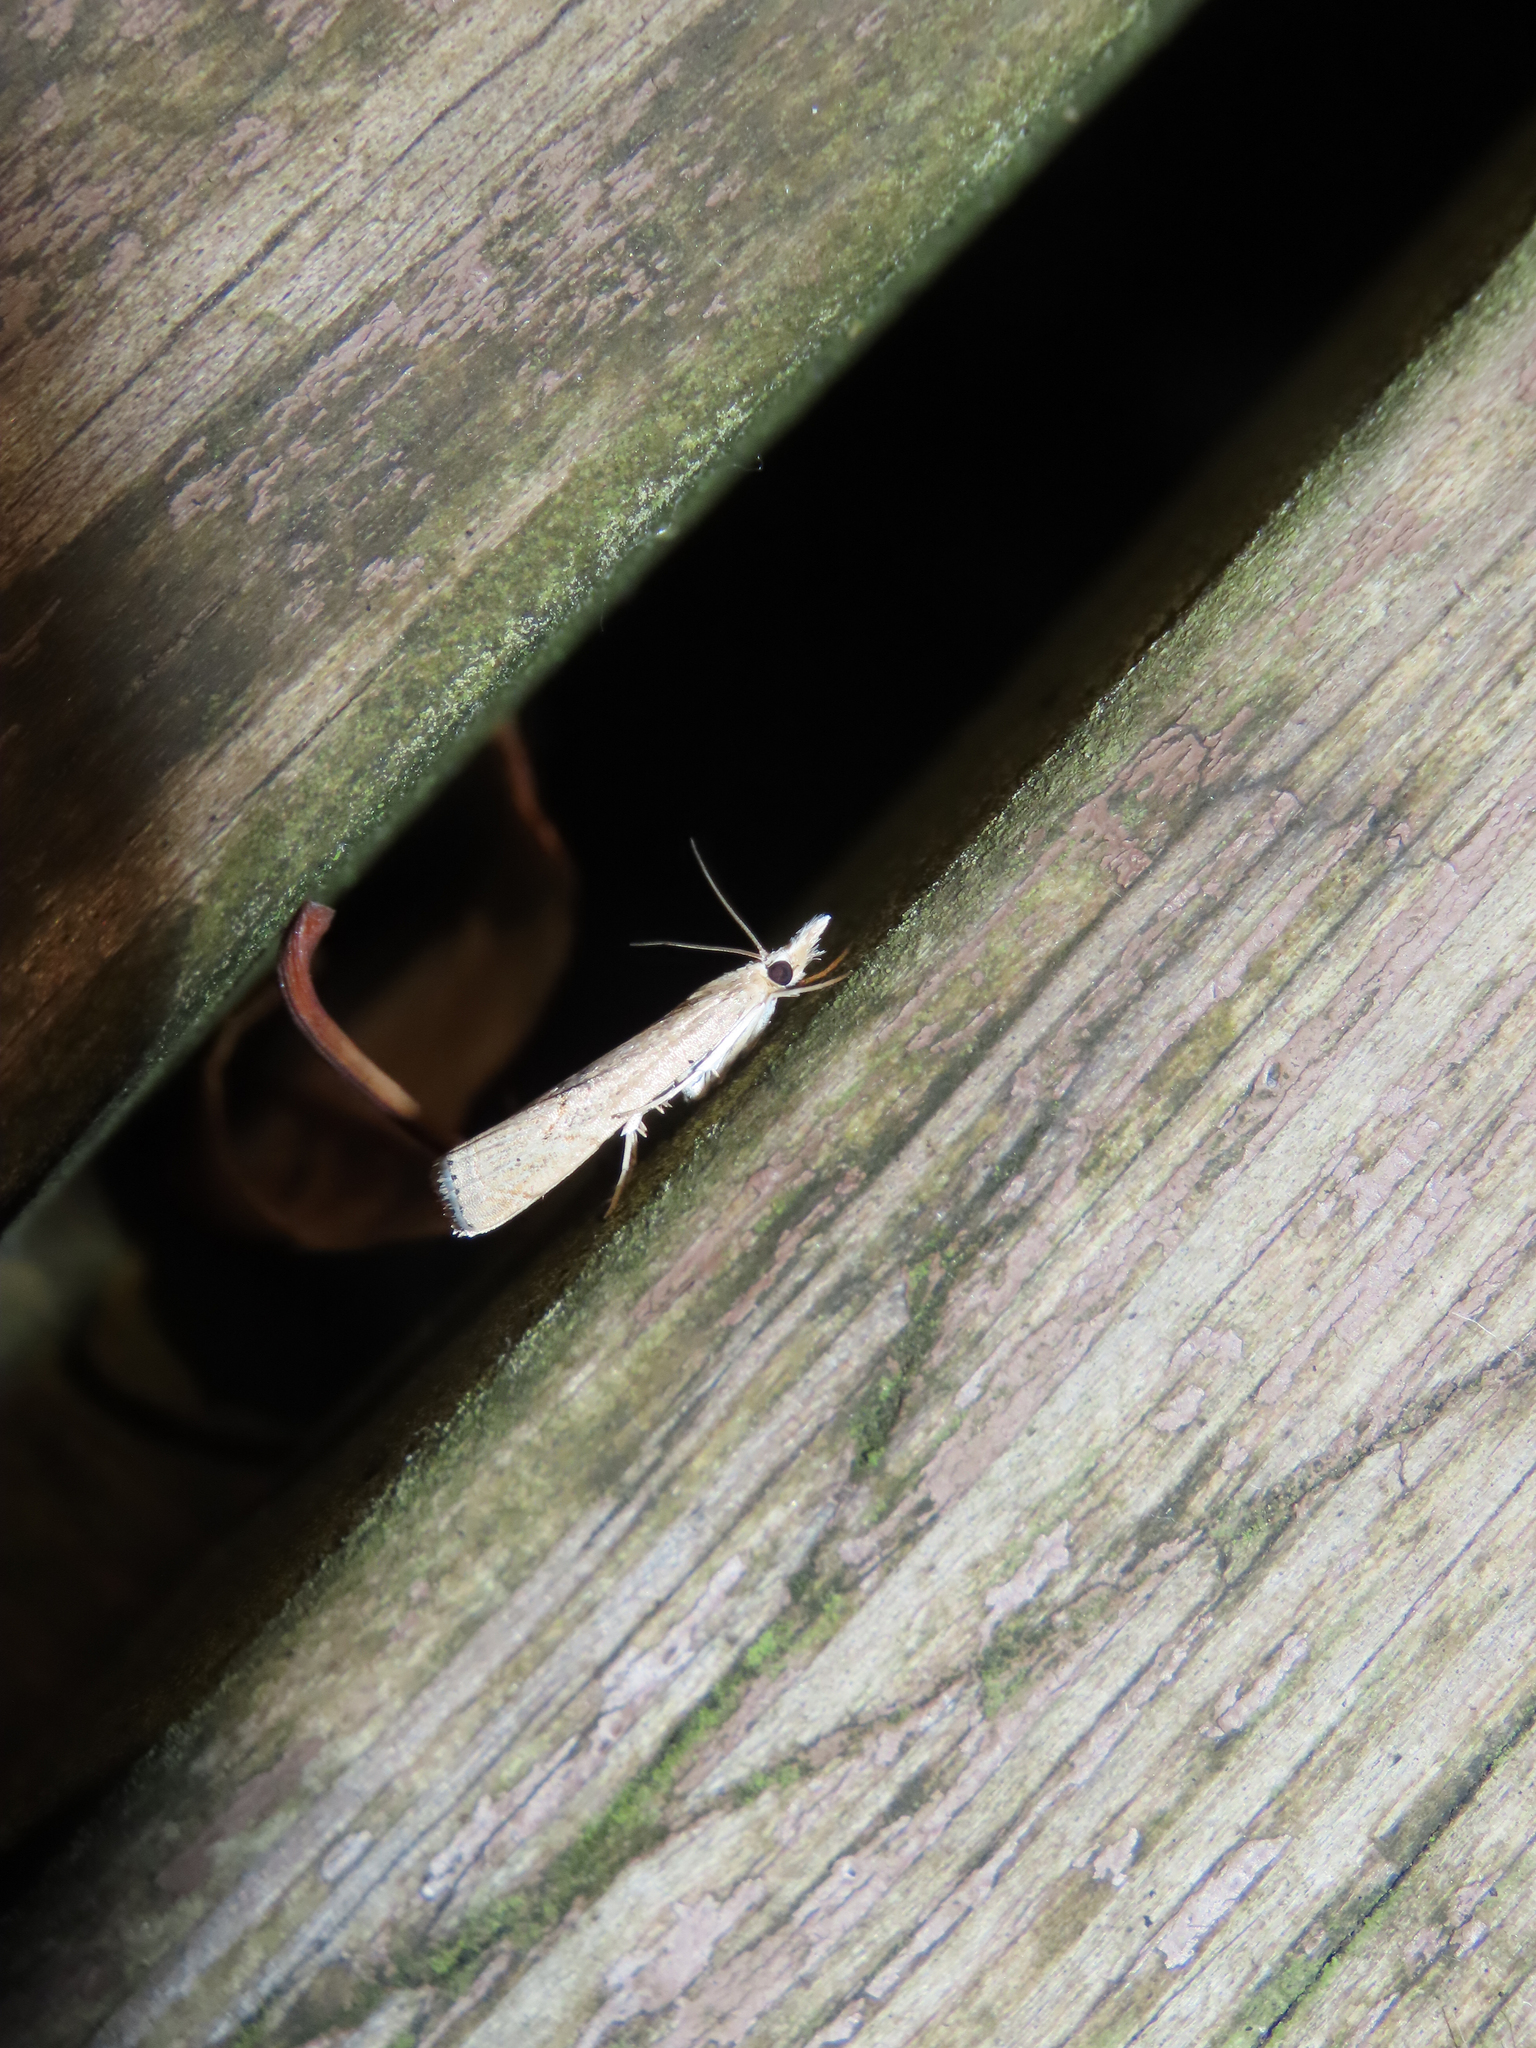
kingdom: Animalia
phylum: Arthropoda
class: Insecta
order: Lepidoptera
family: Crambidae
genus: Parapediasia
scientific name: Parapediasia teterellus
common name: Bluegrass webworm moth
